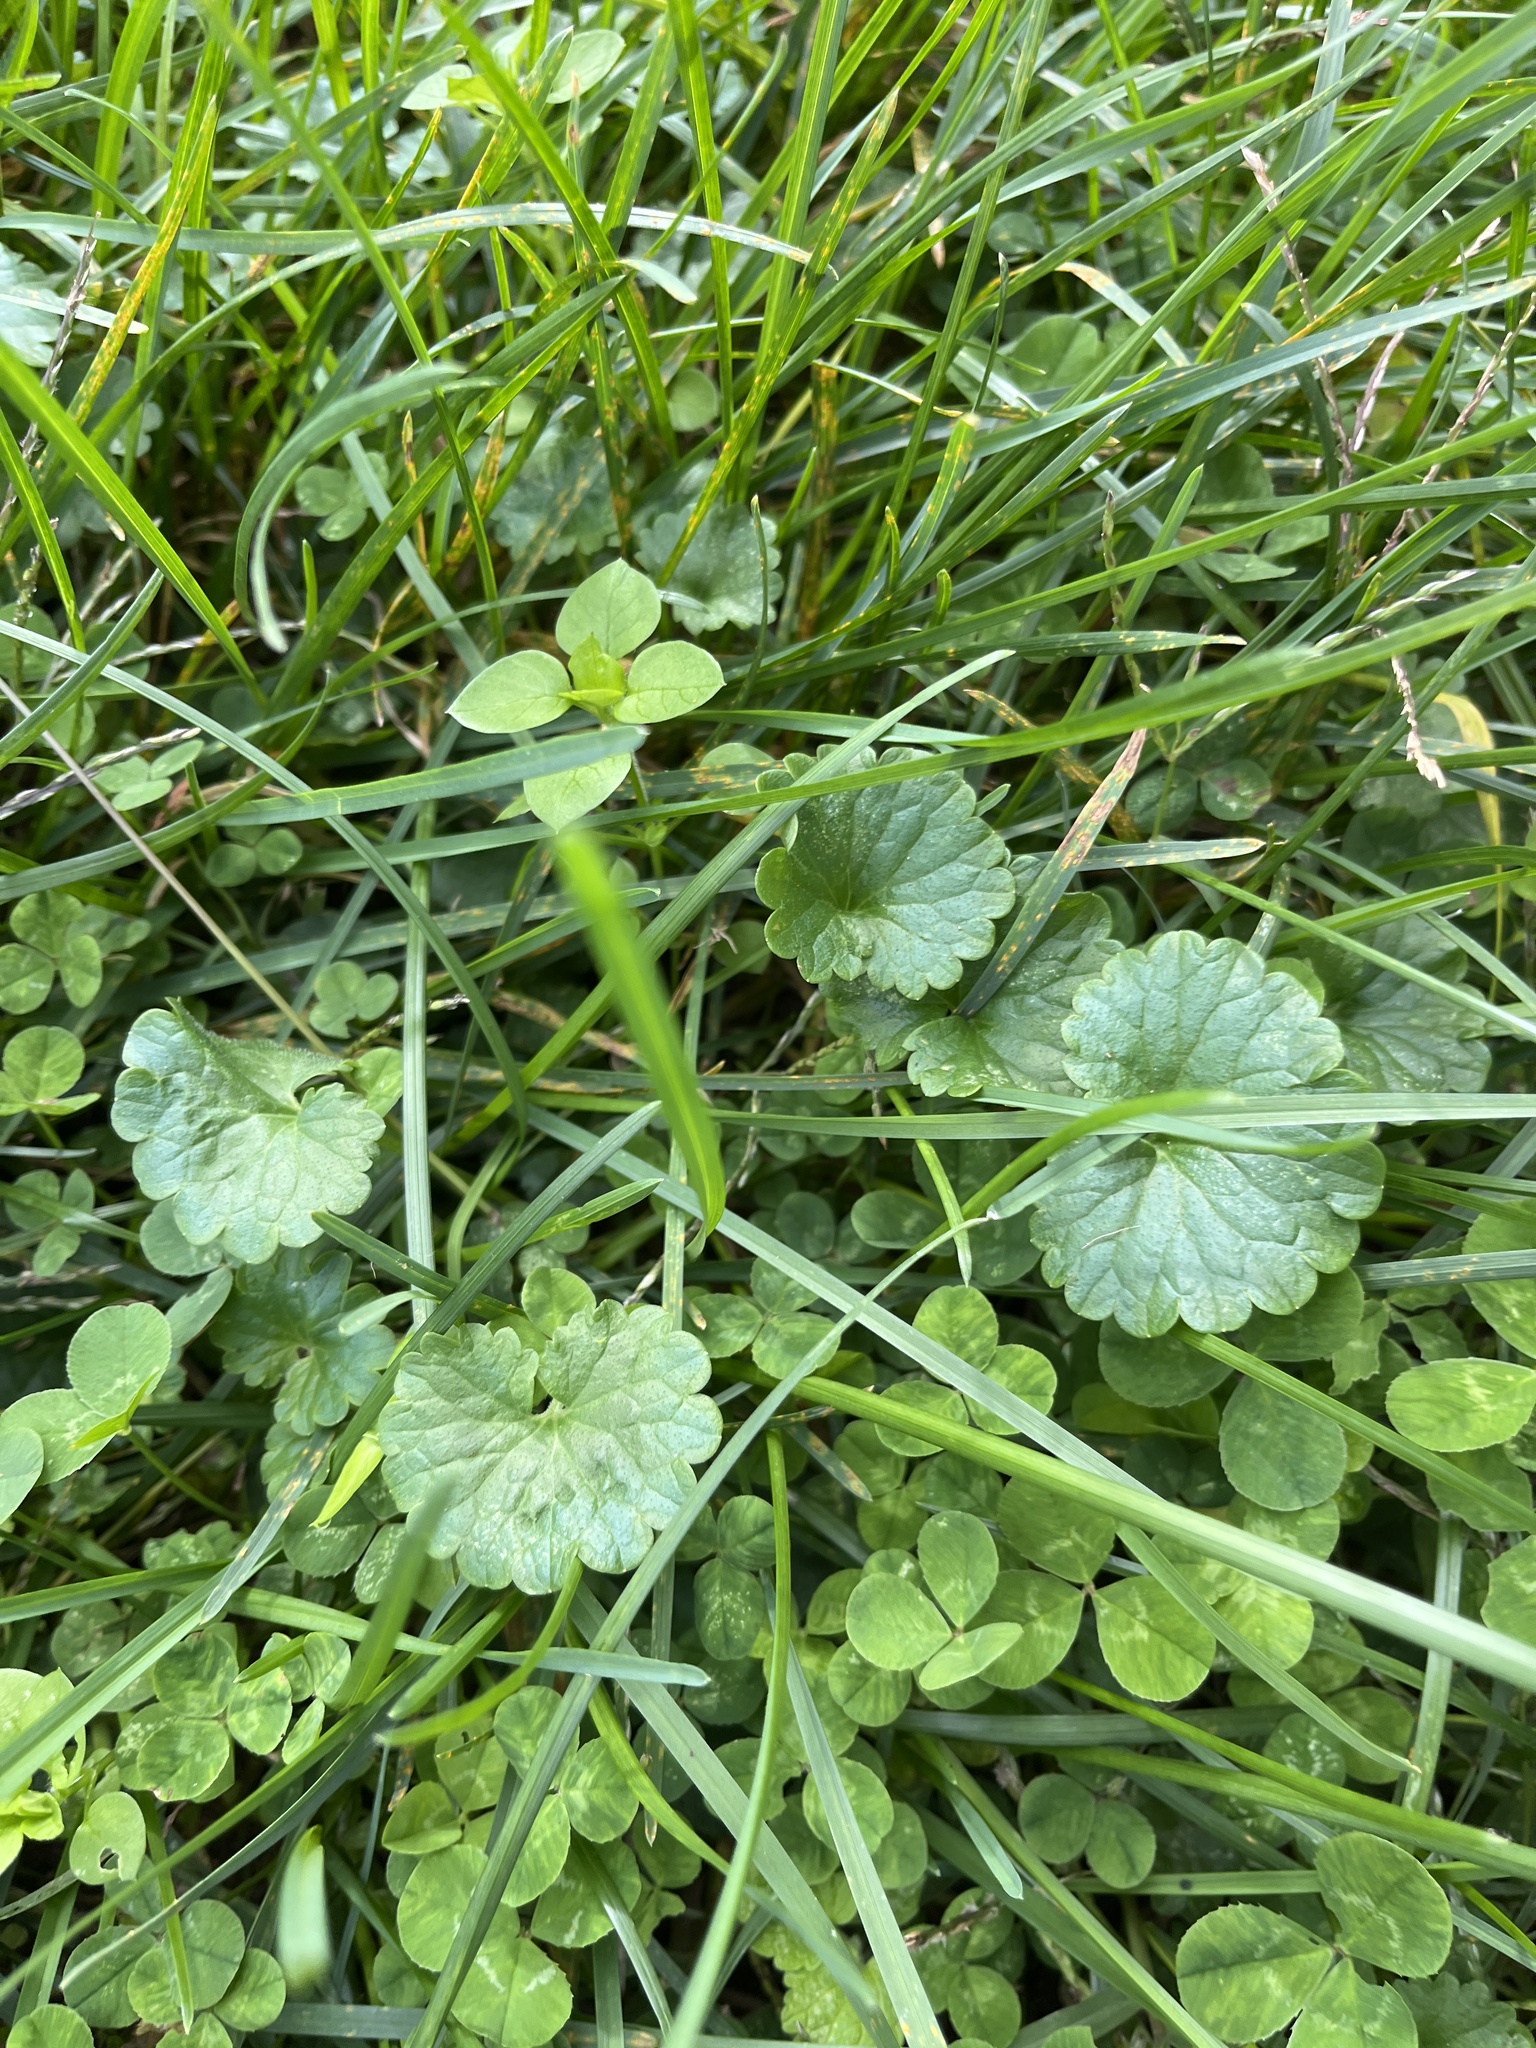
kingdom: Plantae
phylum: Tracheophyta
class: Magnoliopsida
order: Lamiales
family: Lamiaceae
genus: Glechoma
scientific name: Glechoma hederacea
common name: Ground ivy
